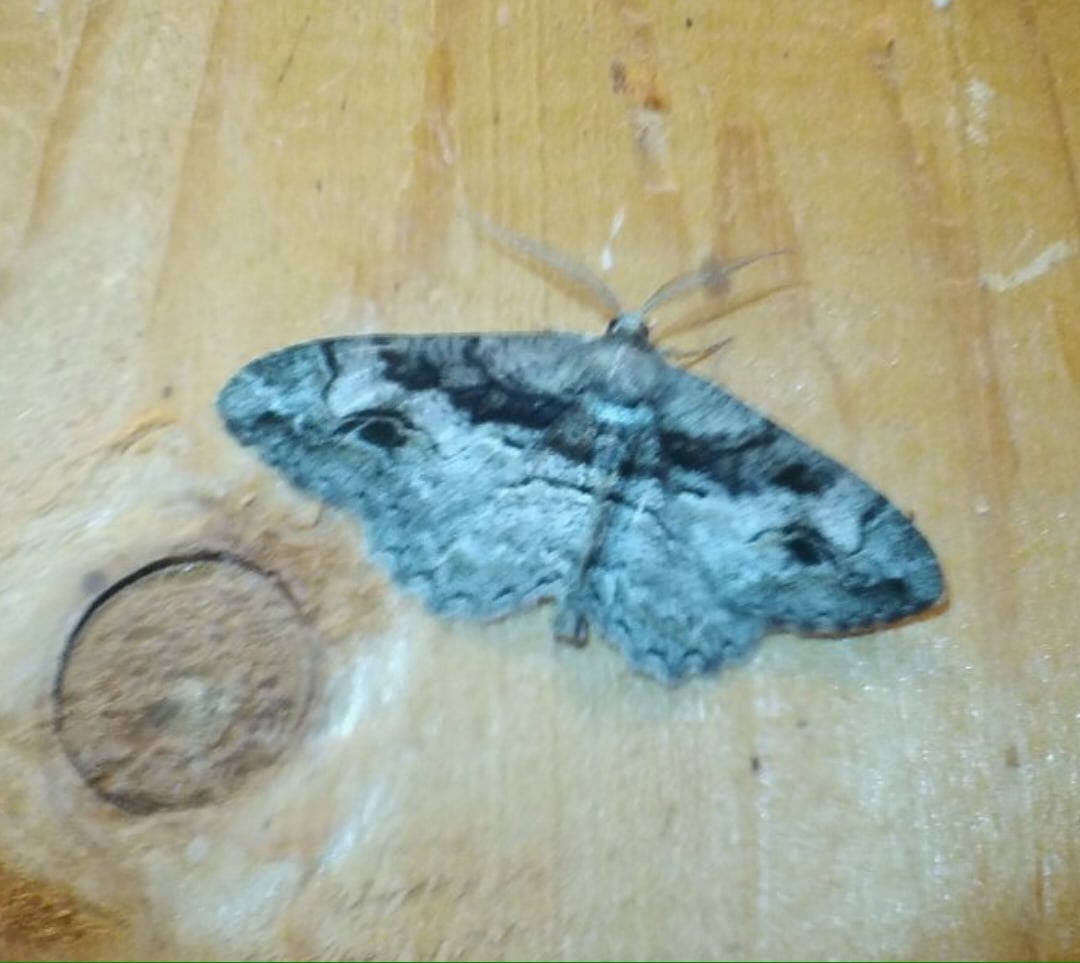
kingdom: Animalia
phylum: Arthropoda
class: Insecta
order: Lepidoptera
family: Geometridae
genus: Alcis
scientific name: Alcis deversata
